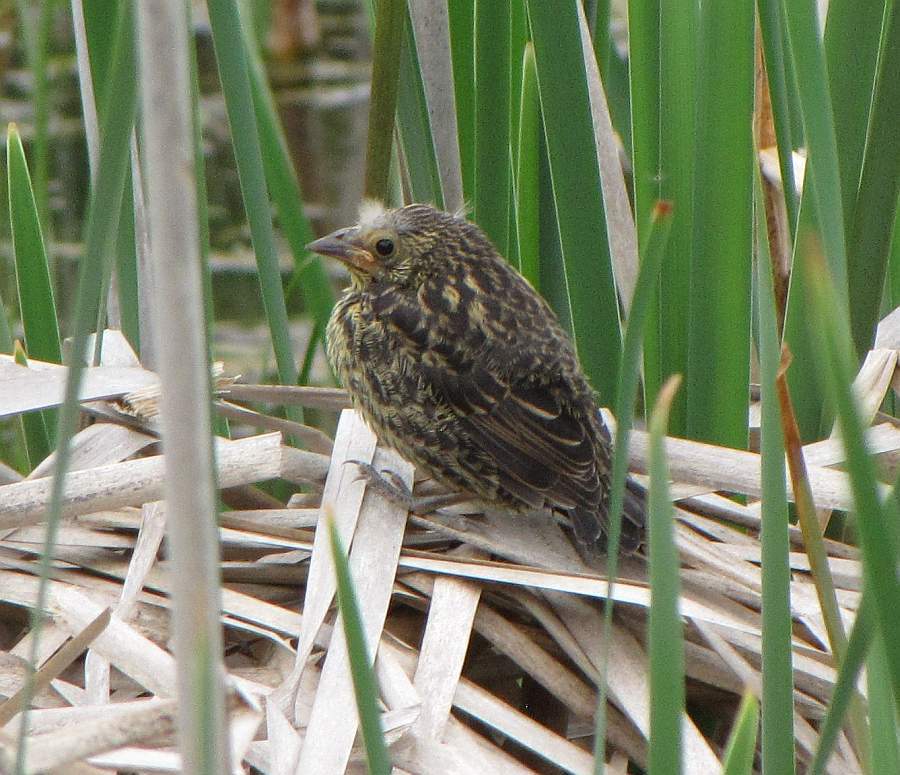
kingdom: Animalia
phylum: Chordata
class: Aves
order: Passeriformes
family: Icteridae
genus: Agelaius
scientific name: Agelaius phoeniceus
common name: Red-winged blackbird
